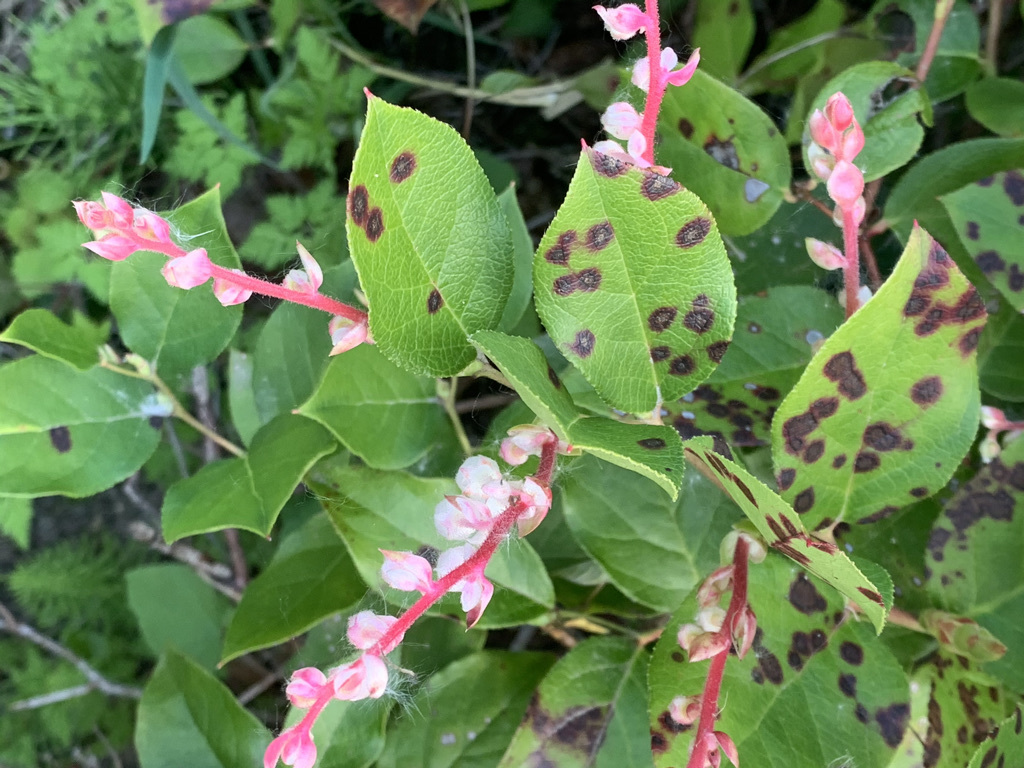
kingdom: Plantae
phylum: Tracheophyta
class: Magnoliopsida
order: Ericales
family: Ericaceae
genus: Gaultheria
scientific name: Gaultheria shallon
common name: Shallon
